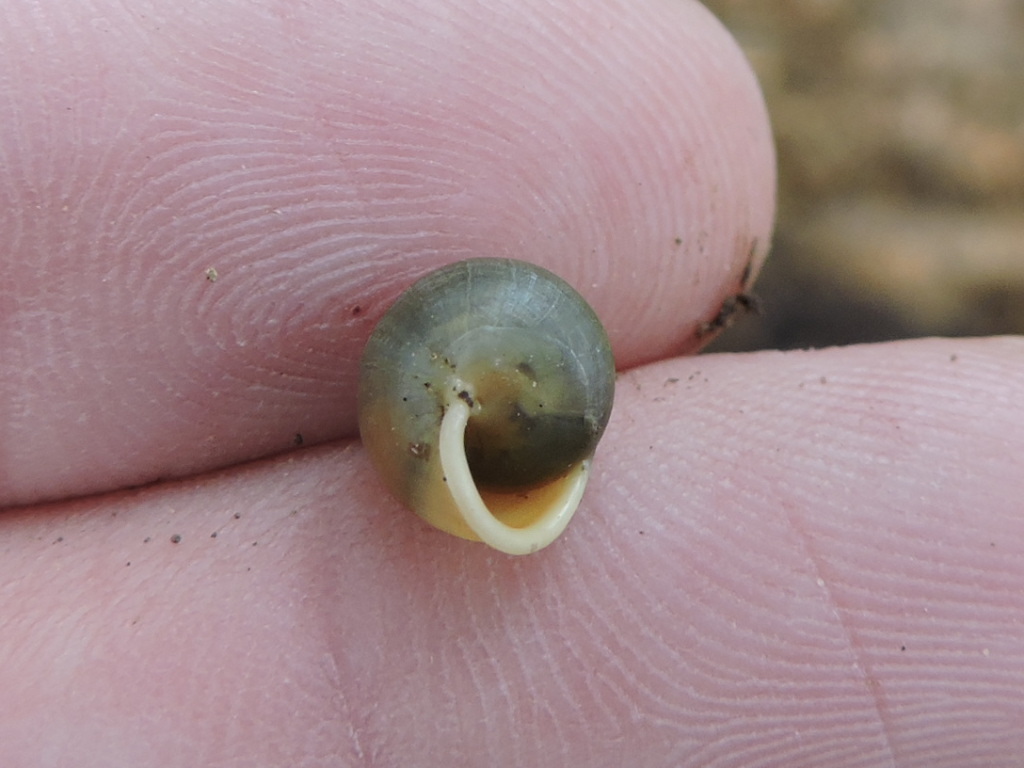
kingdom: Animalia
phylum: Mollusca
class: Gastropoda
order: Cycloneritida
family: Helicinidae
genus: Helicina
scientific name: Helicina orbiculata
